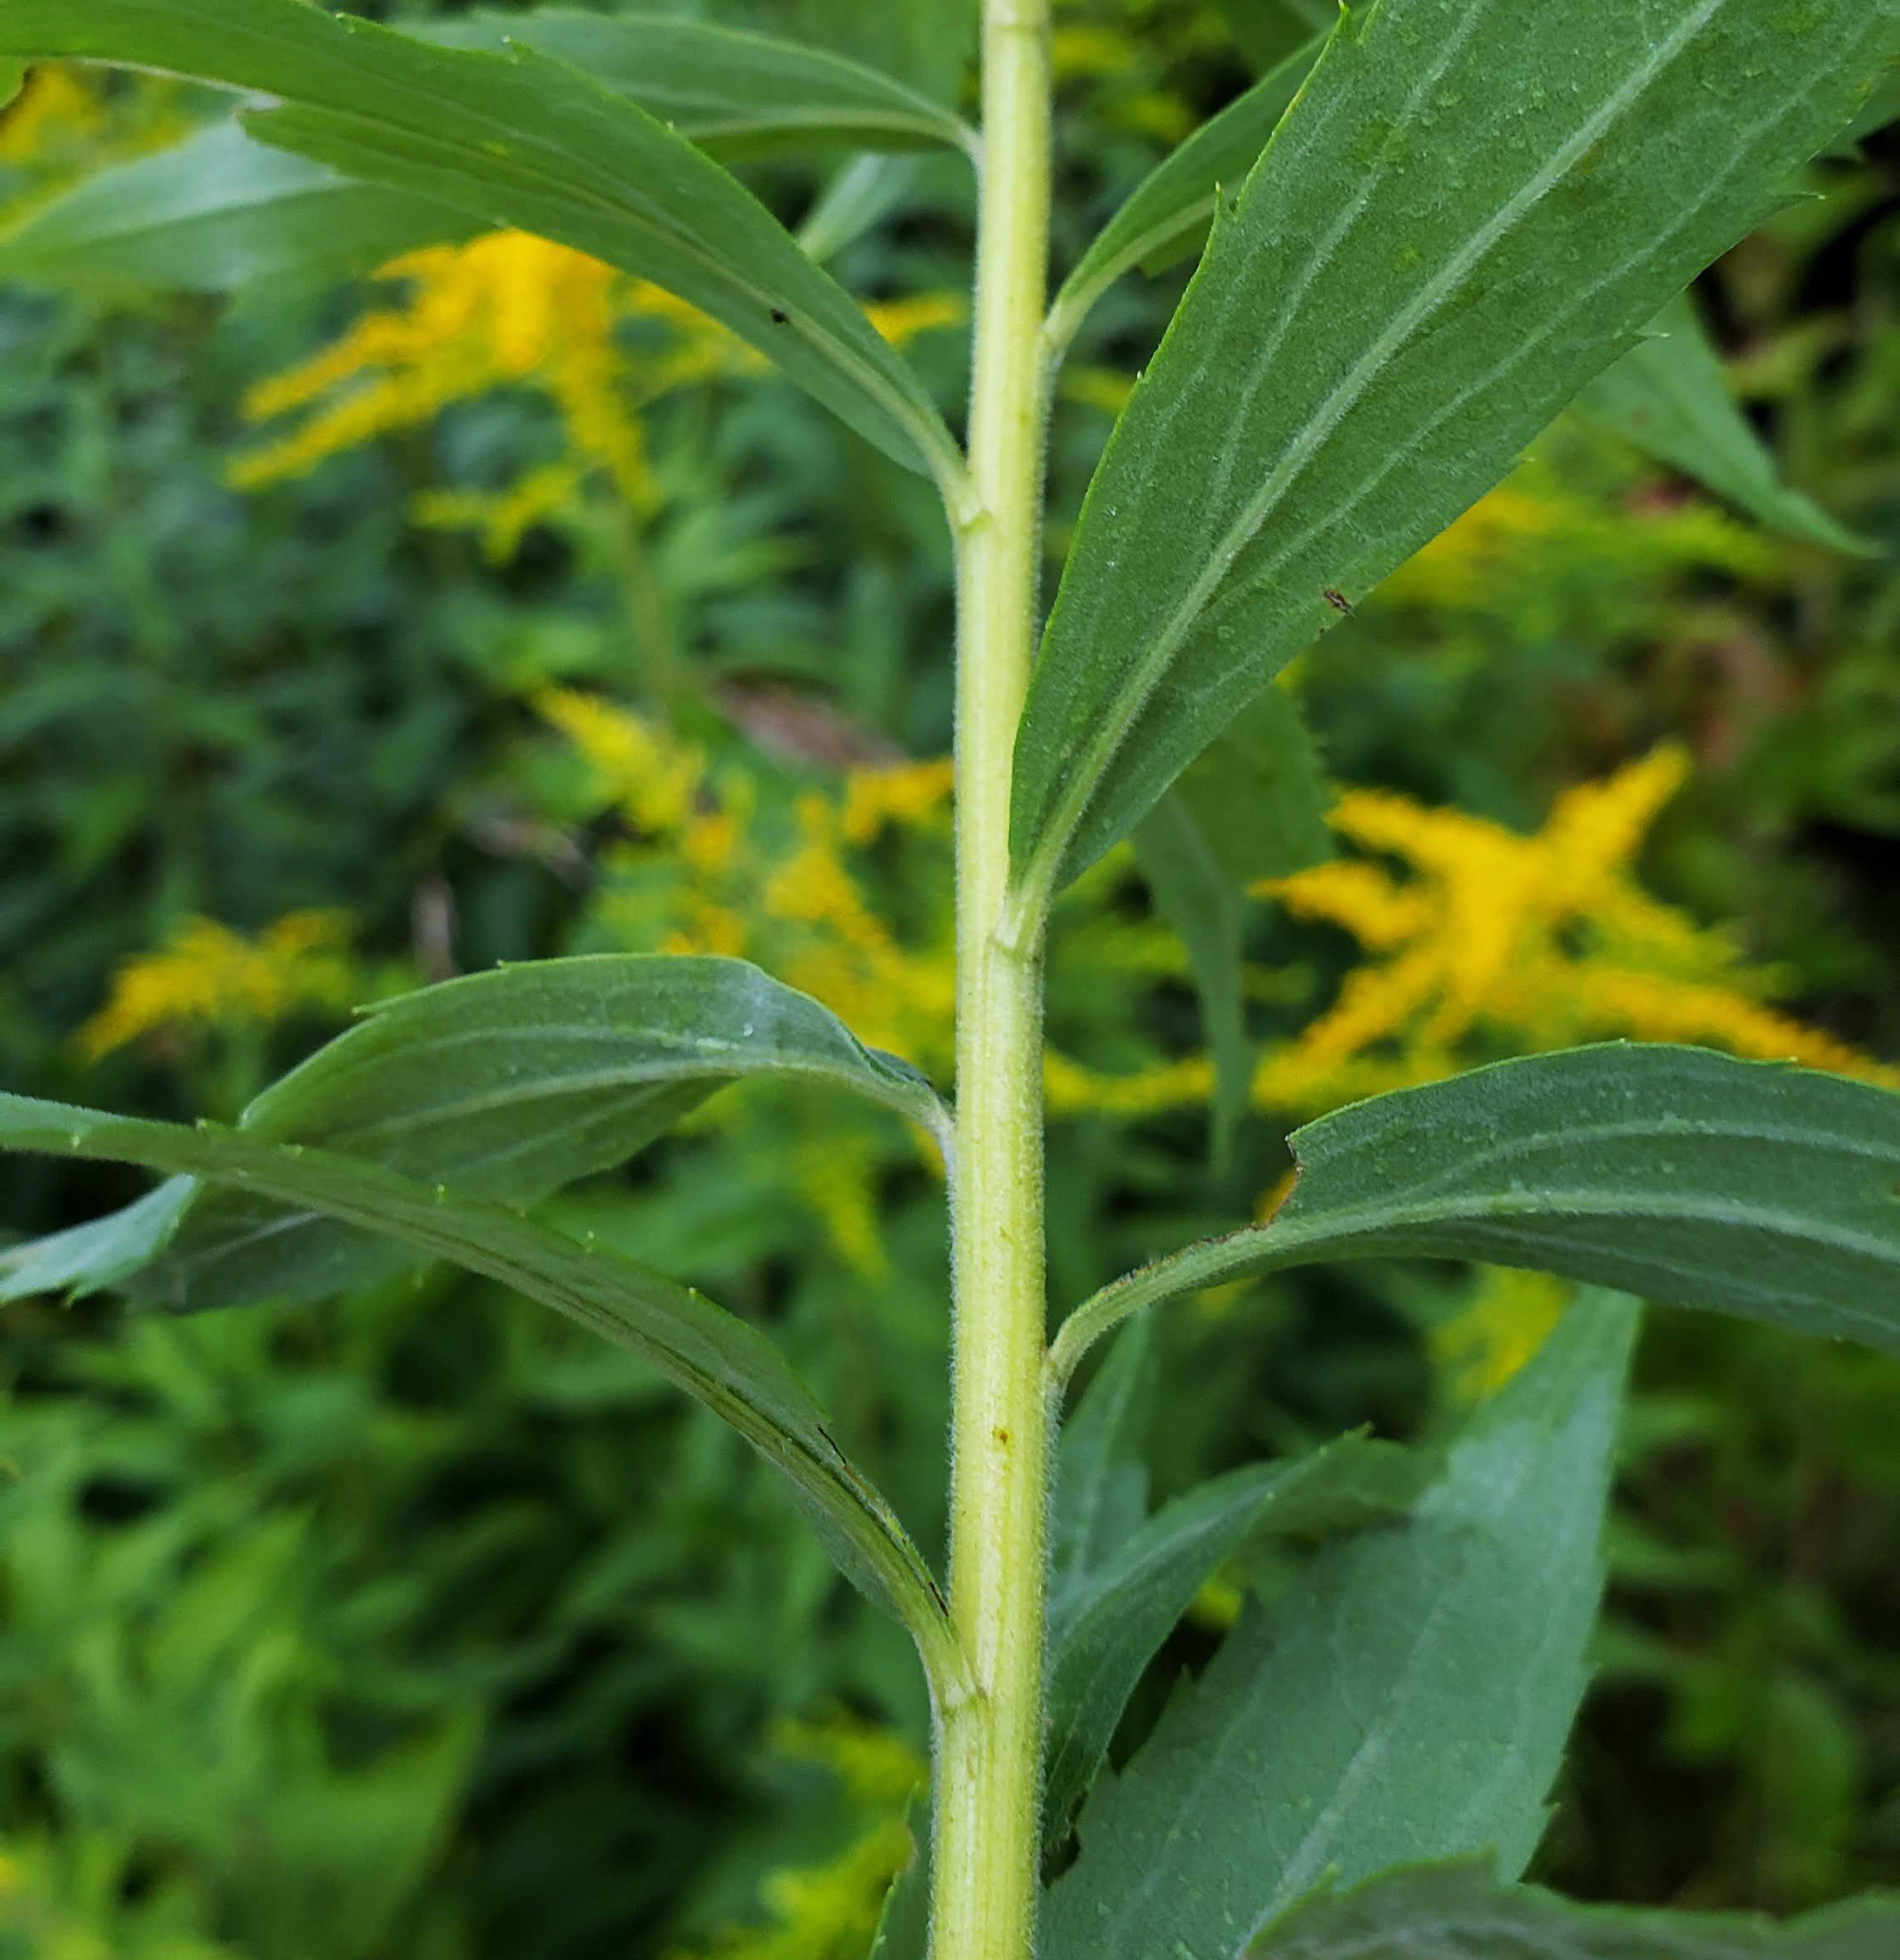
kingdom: Plantae
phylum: Tracheophyta
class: Magnoliopsida
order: Asterales
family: Asteraceae
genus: Solidago
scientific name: Solidago canadensis
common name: Canada goldenrod
